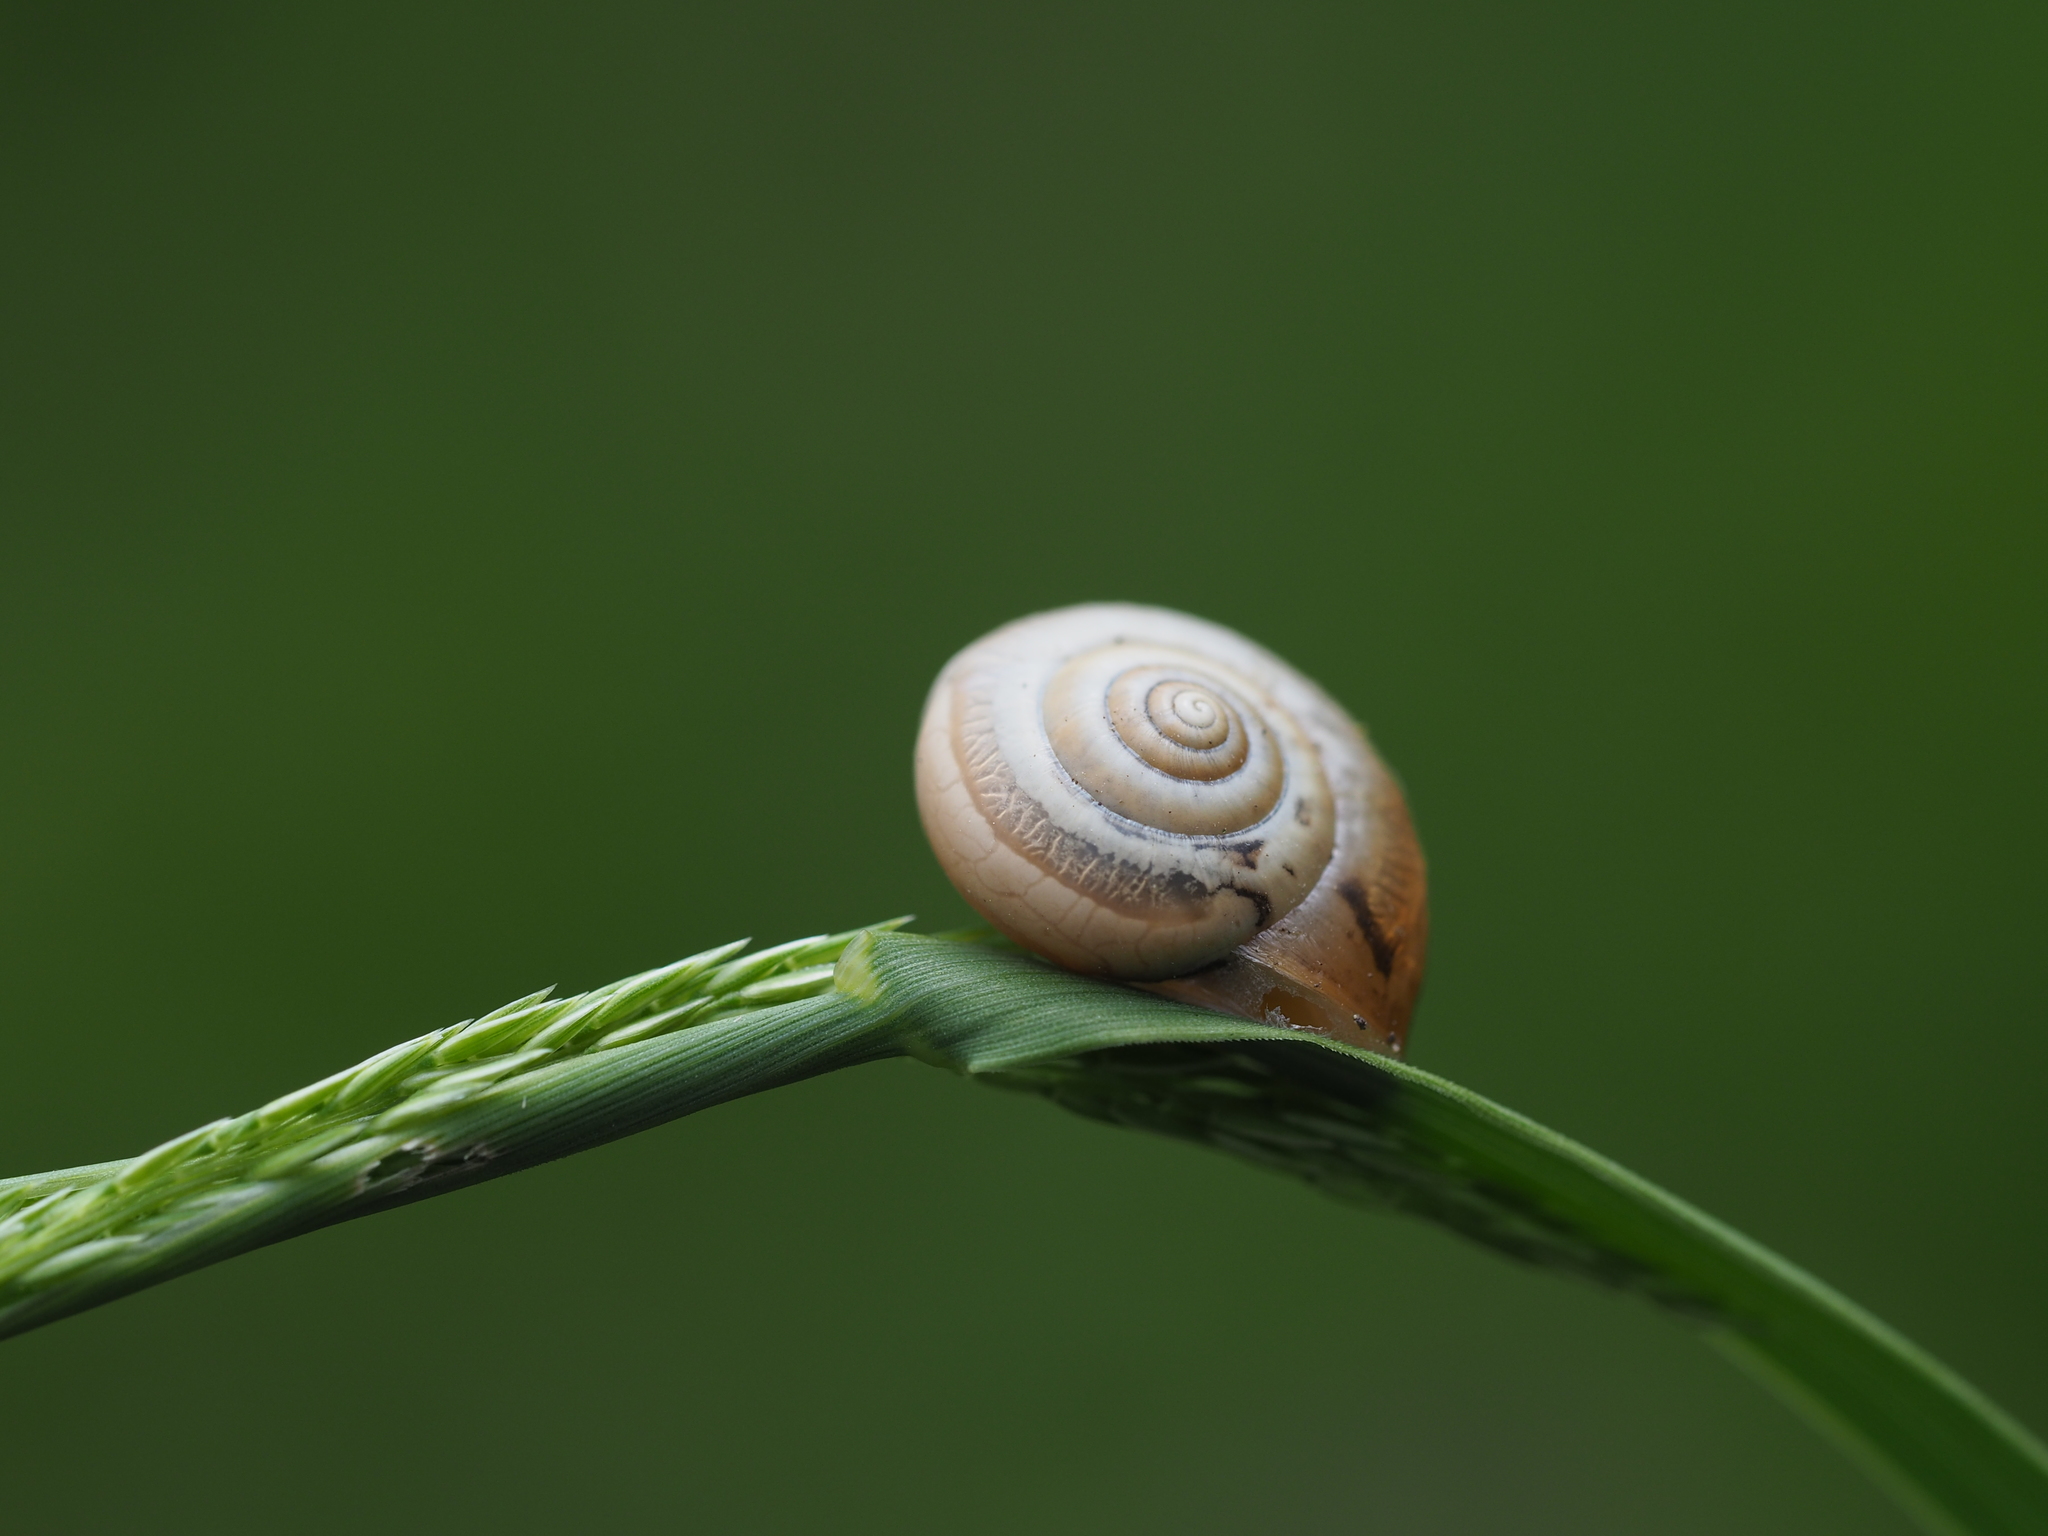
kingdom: Animalia
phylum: Arthropoda
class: Insecta
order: Lepidoptera
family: Papilionidae
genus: Papilio
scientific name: Papilio machaon
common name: Swallowtail
